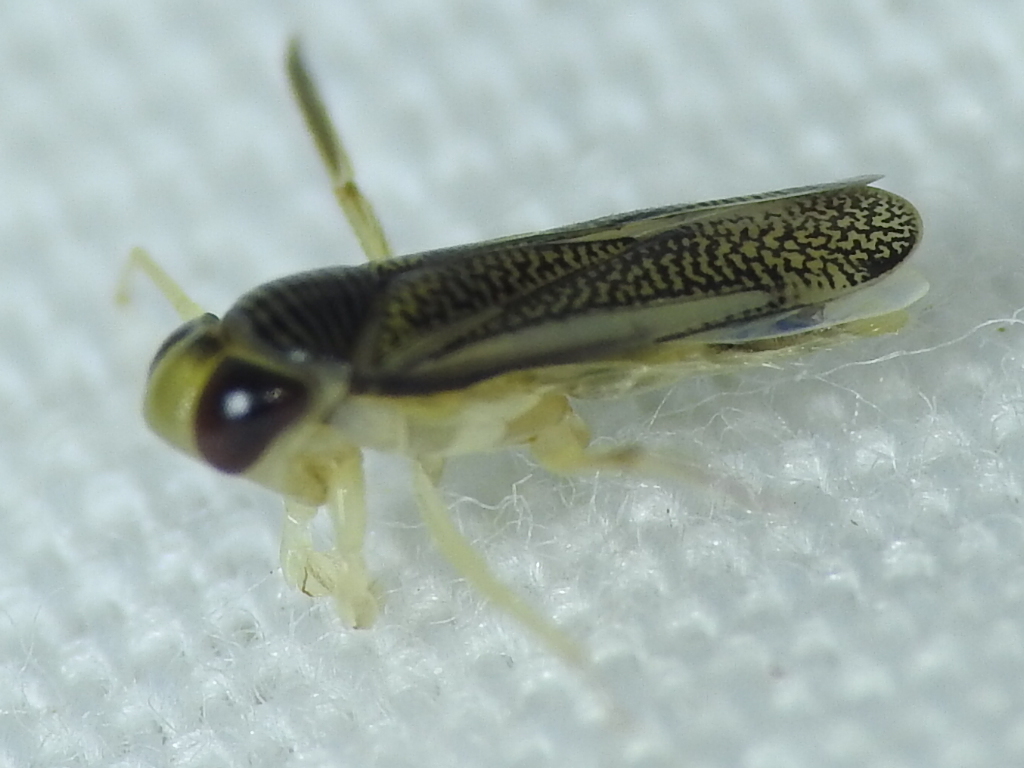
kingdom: Animalia
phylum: Arthropoda
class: Insecta
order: Hemiptera
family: Corixidae
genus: Trichocorixa
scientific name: Trichocorixa calva
